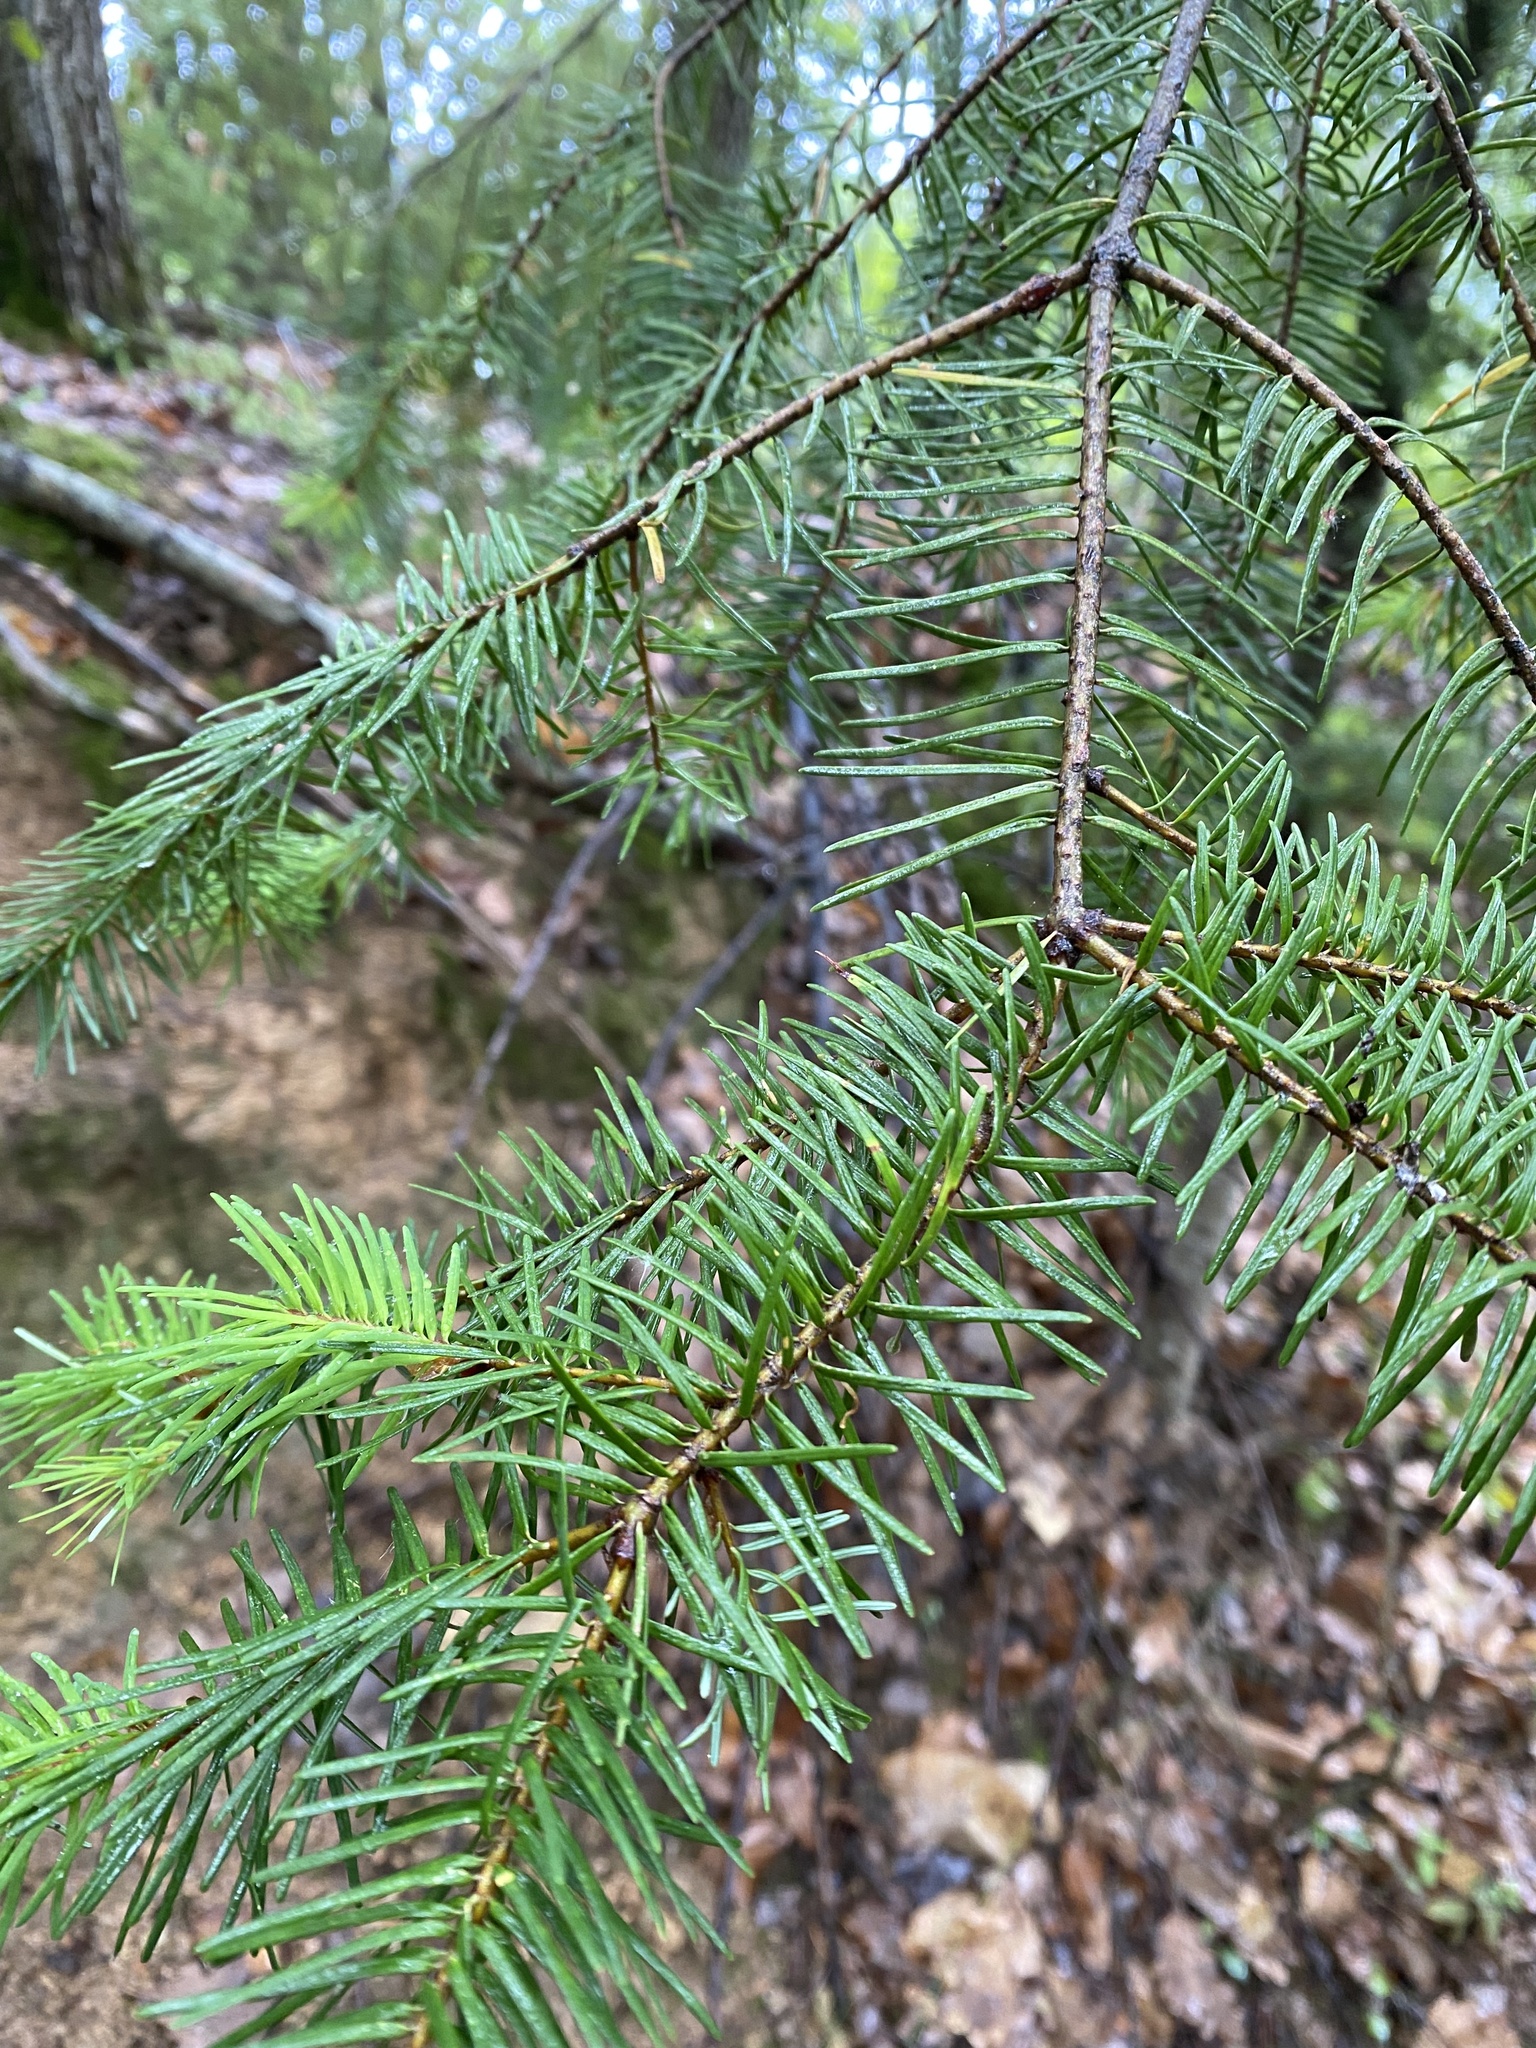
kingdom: Plantae
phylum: Tracheophyta
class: Pinopsida
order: Pinales
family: Pinaceae
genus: Pseudotsuga
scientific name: Pseudotsuga menziesii
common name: Douglas fir
